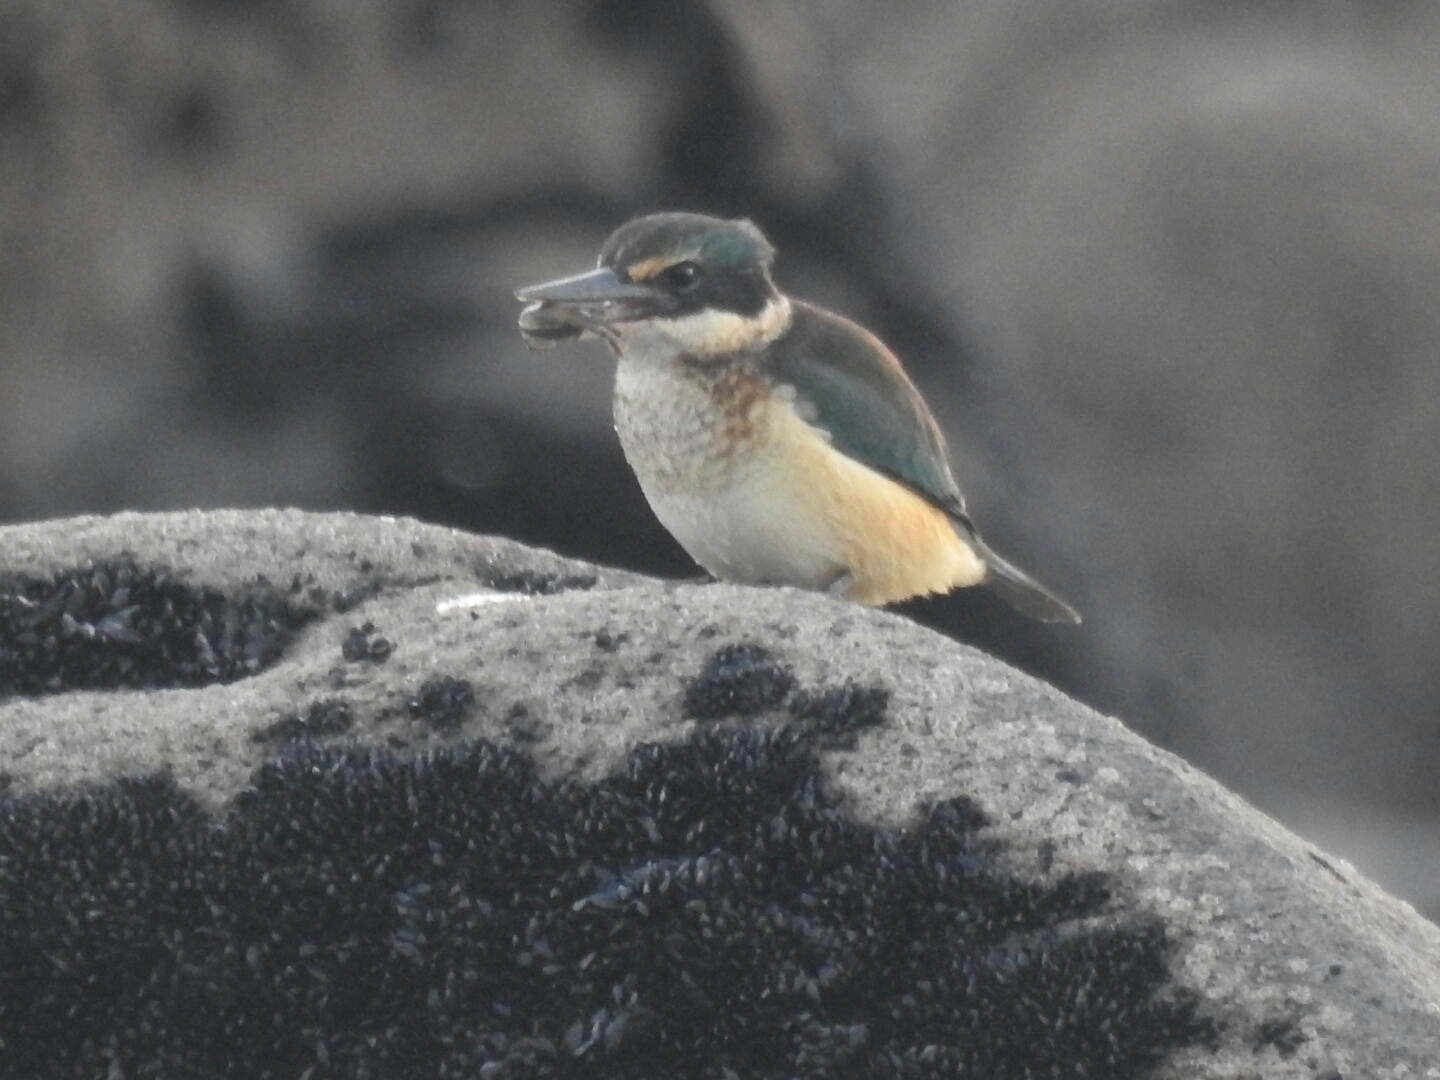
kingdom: Animalia
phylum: Chordata
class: Aves
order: Coraciiformes
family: Alcedinidae
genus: Todiramphus
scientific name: Todiramphus sanctus
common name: Sacred kingfisher
